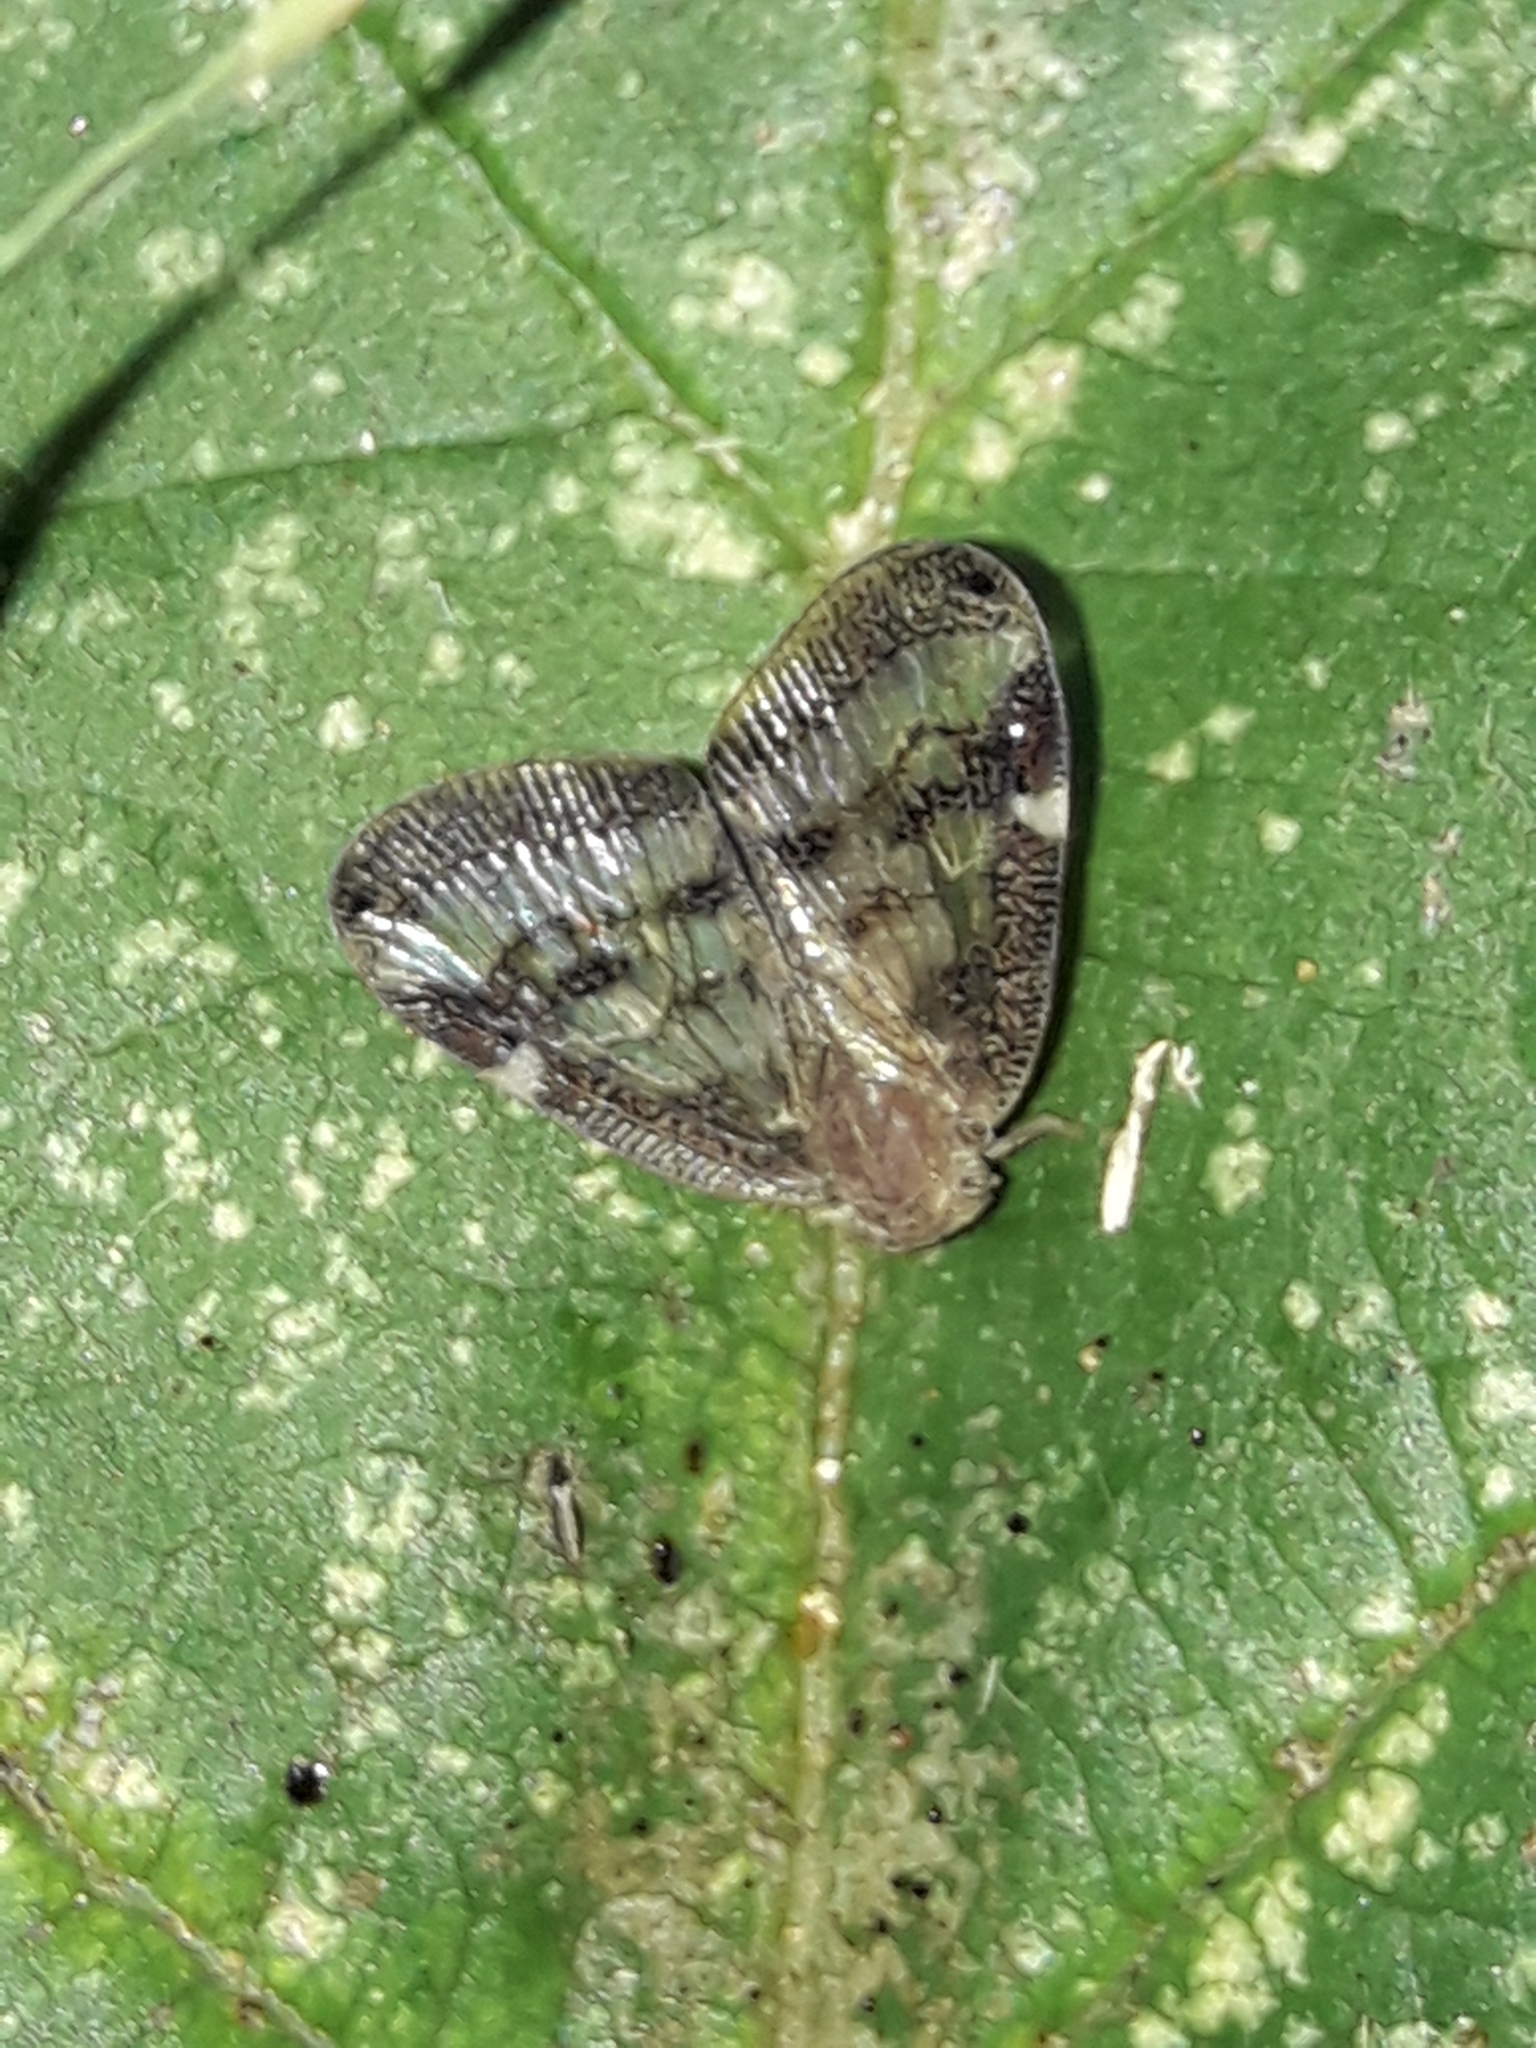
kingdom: Animalia
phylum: Arthropoda
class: Insecta
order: Hemiptera
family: Ricaniidae
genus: Scolypopa
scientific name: Scolypopa australis
